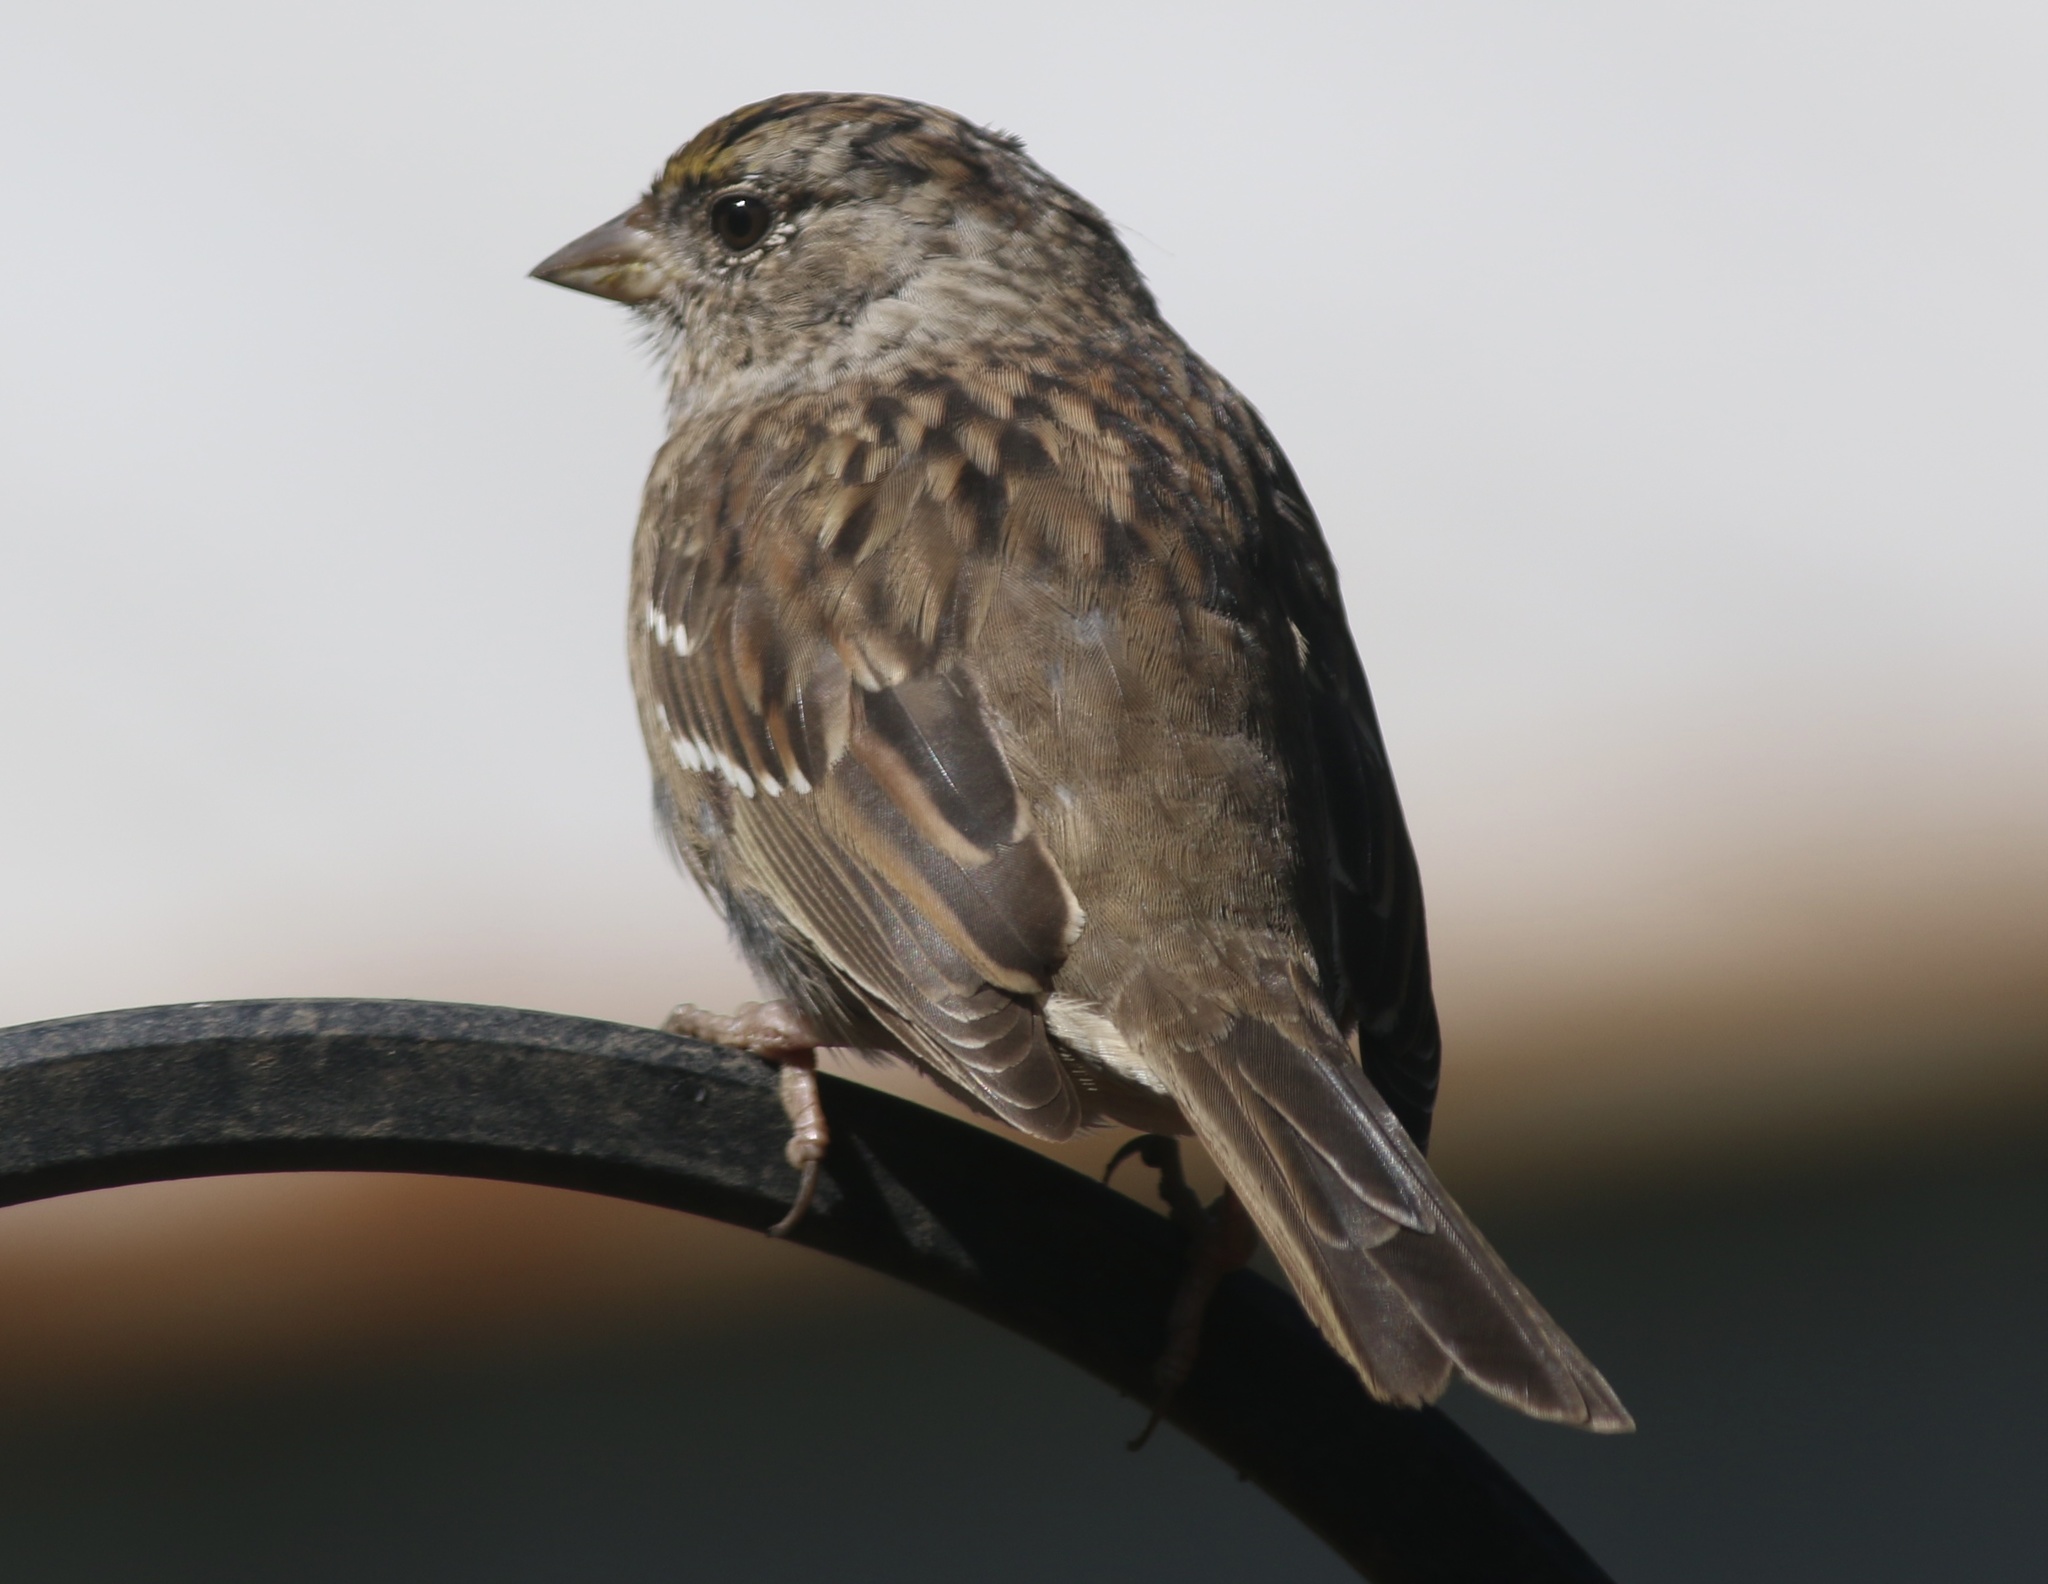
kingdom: Animalia
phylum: Chordata
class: Aves
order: Passeriformes
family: Passerellidae
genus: Zonotrichia
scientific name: Zonotrichia atricapilla
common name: Golden-crowned sparrow
